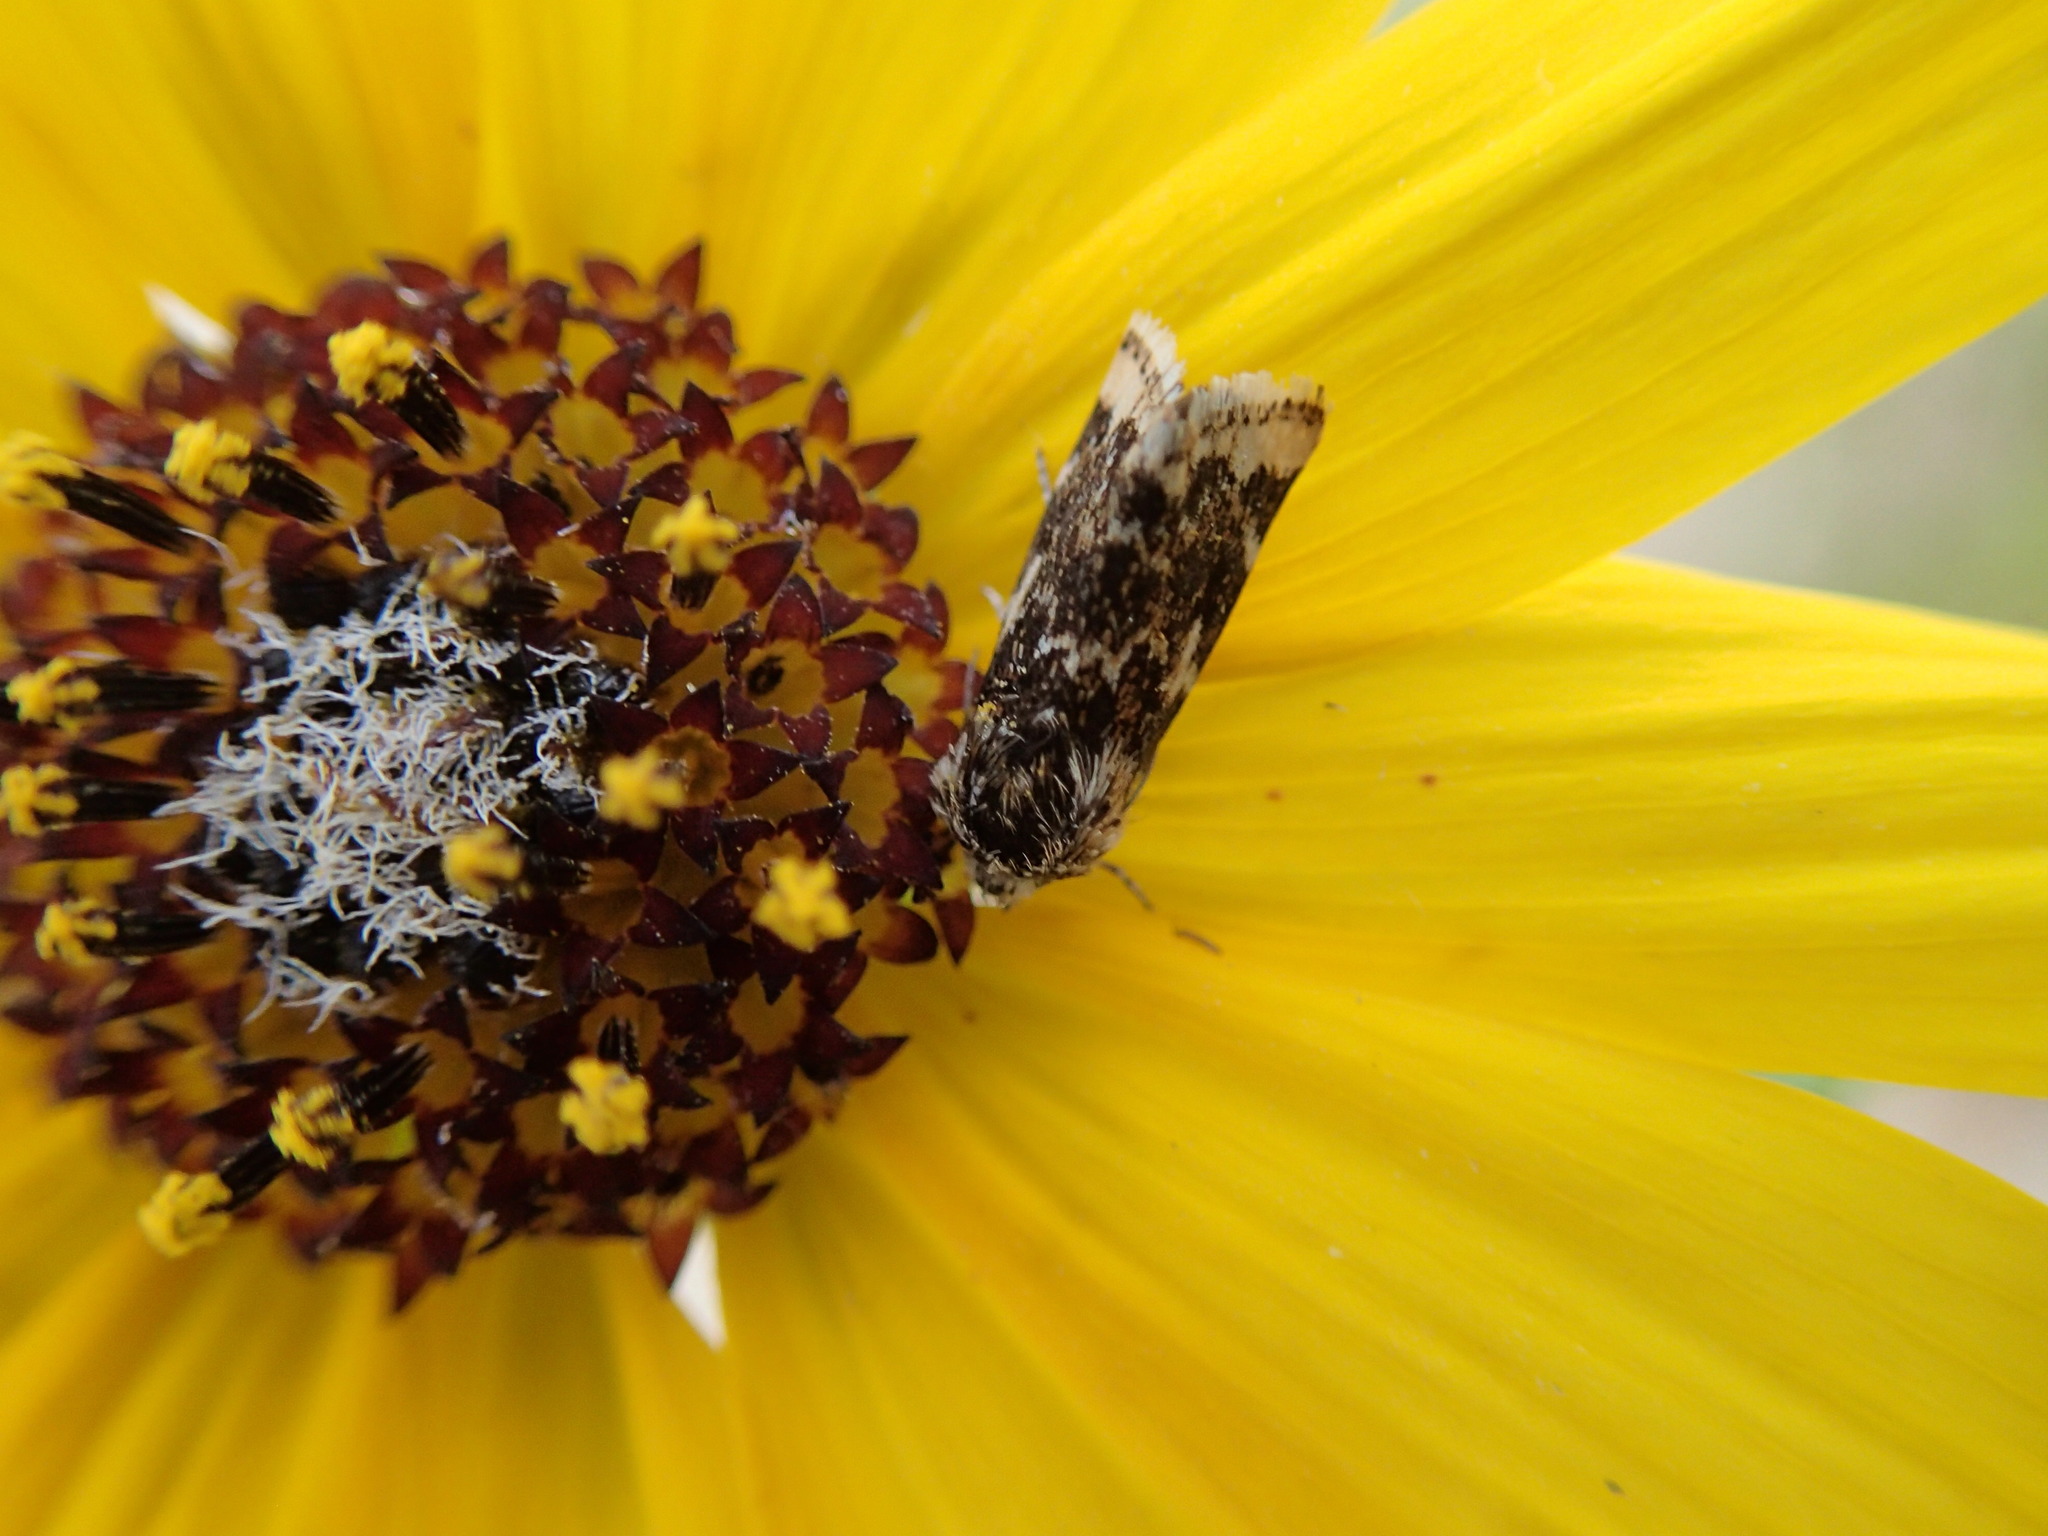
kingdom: Animalia
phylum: Arthropoda
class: Insecta
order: Lepidoptera
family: Noctuidae
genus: Schinia
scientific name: Schinia avemensis
